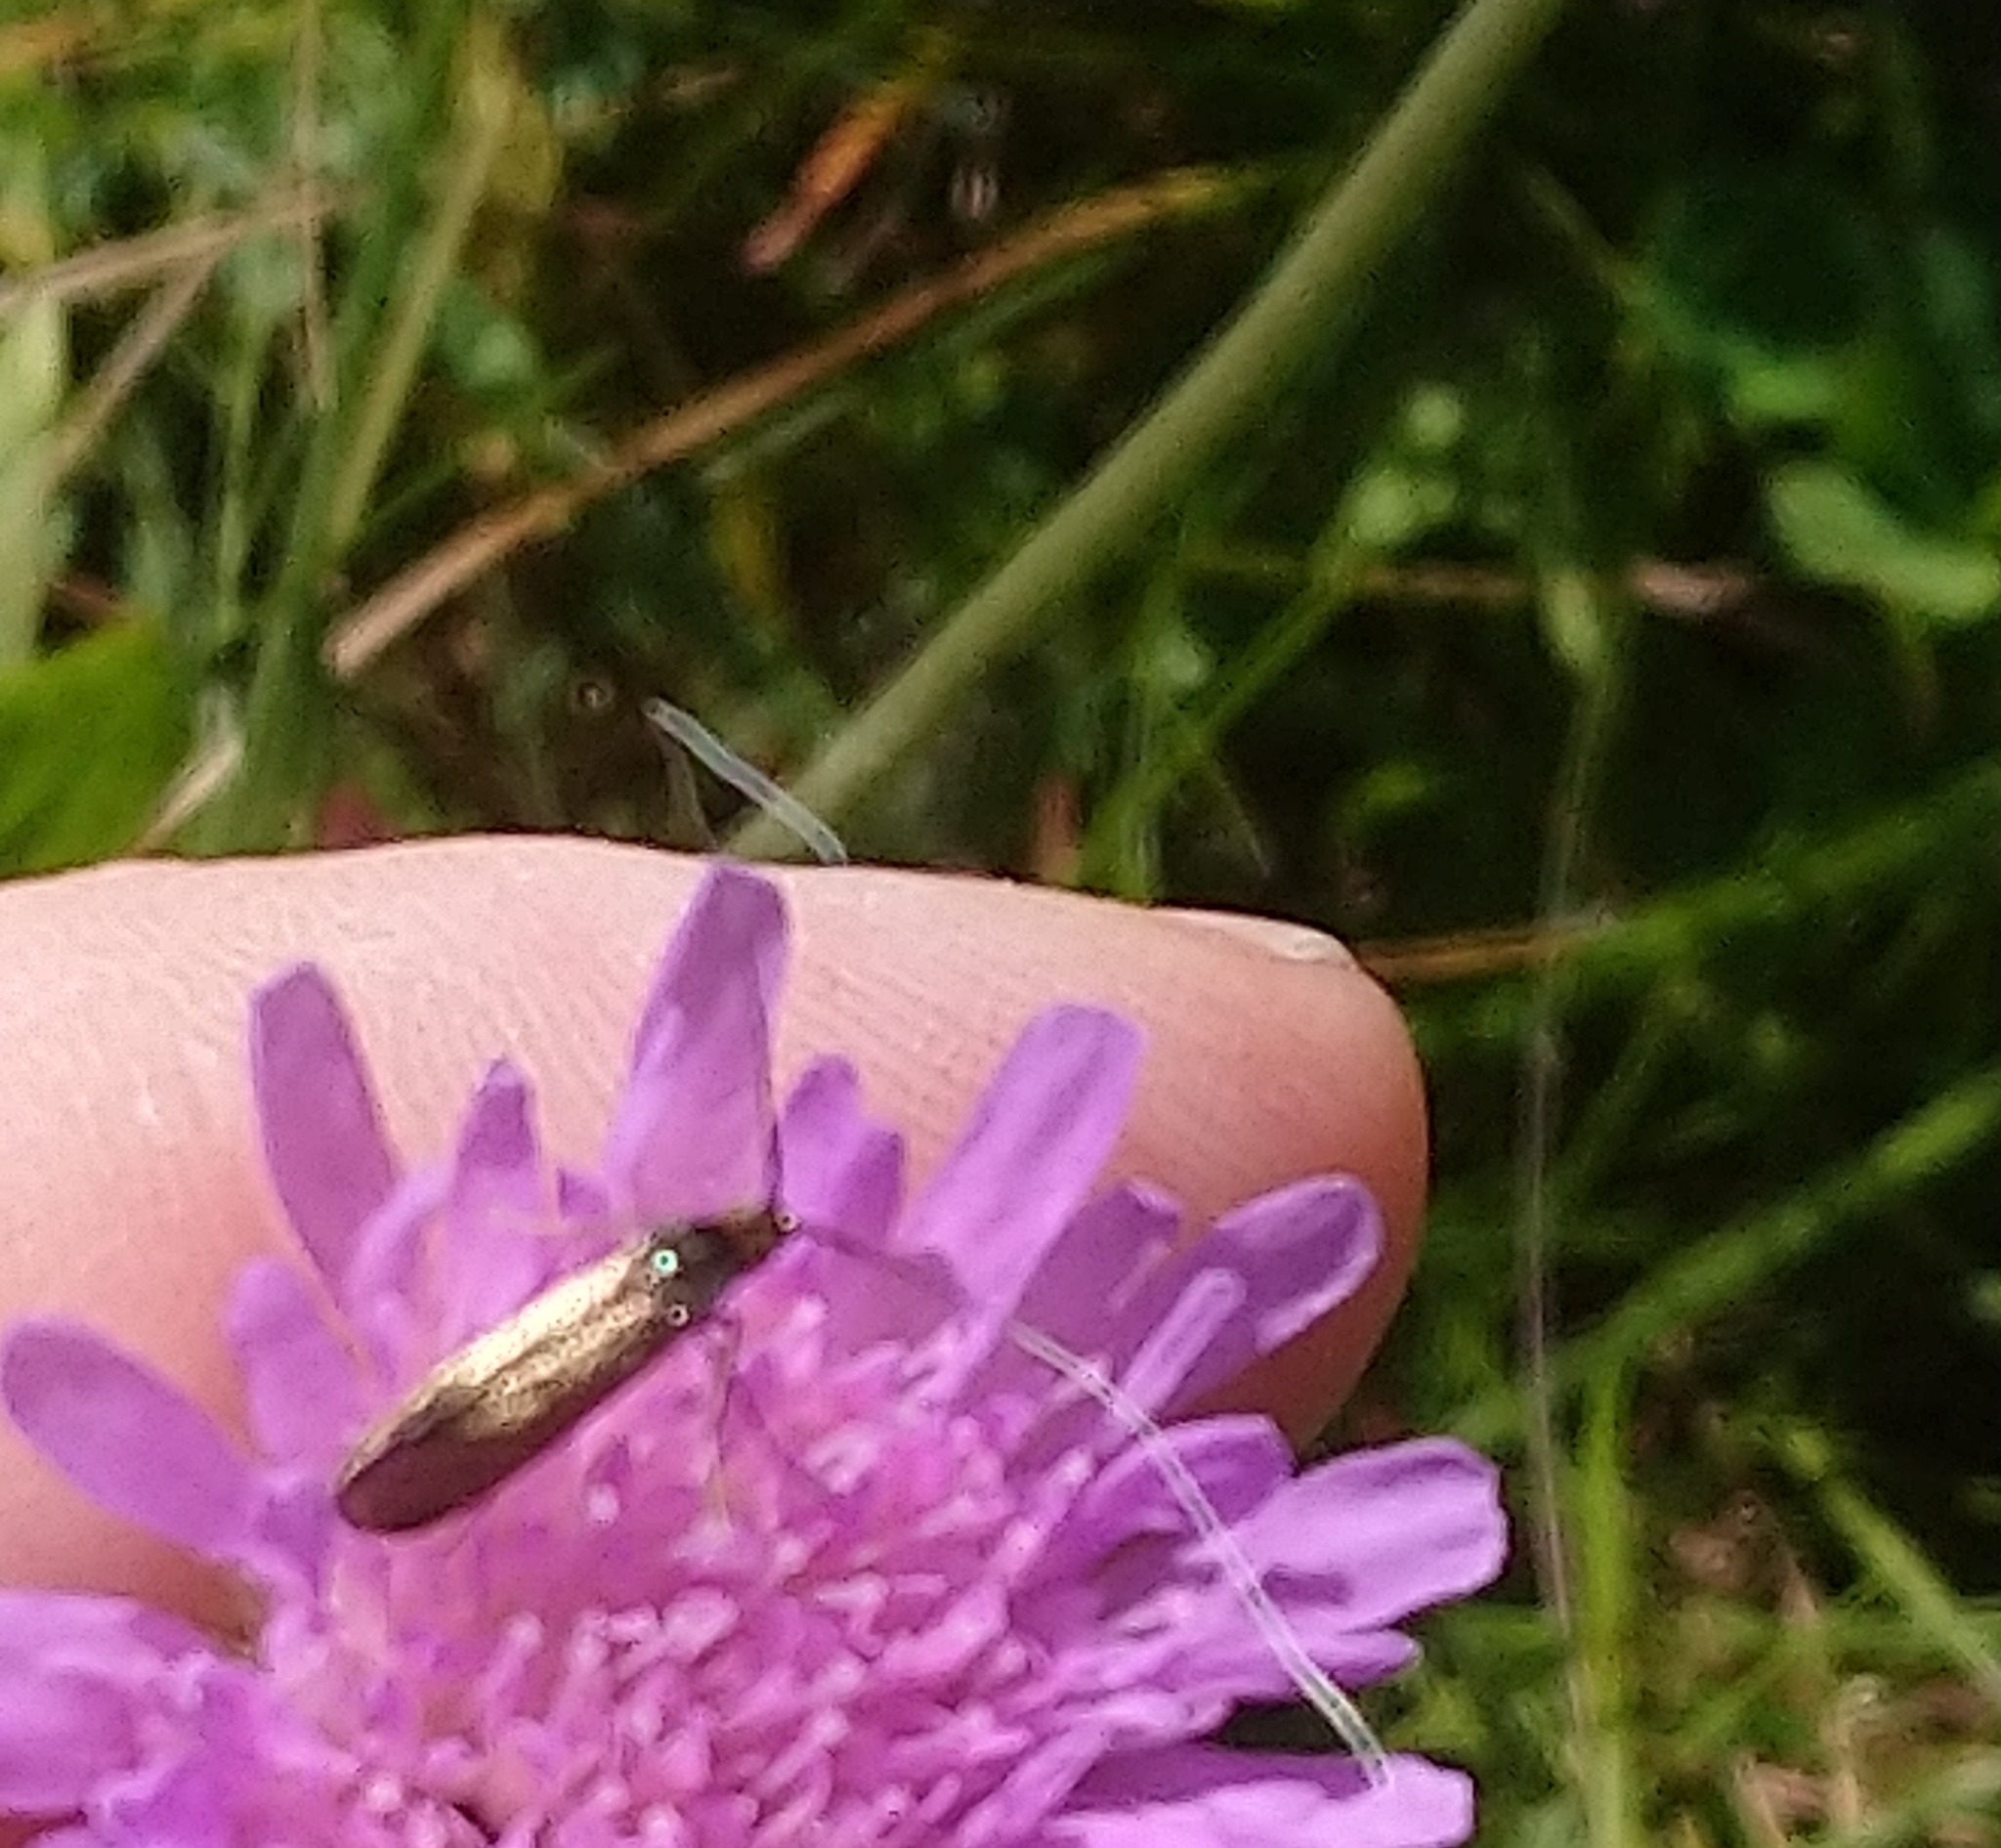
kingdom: Animalia
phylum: Arthropoda
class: Insecta
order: Lepidoptera
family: Adelidae
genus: Nemophora
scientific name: Nemophora metallica
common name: Brassy long-horn
